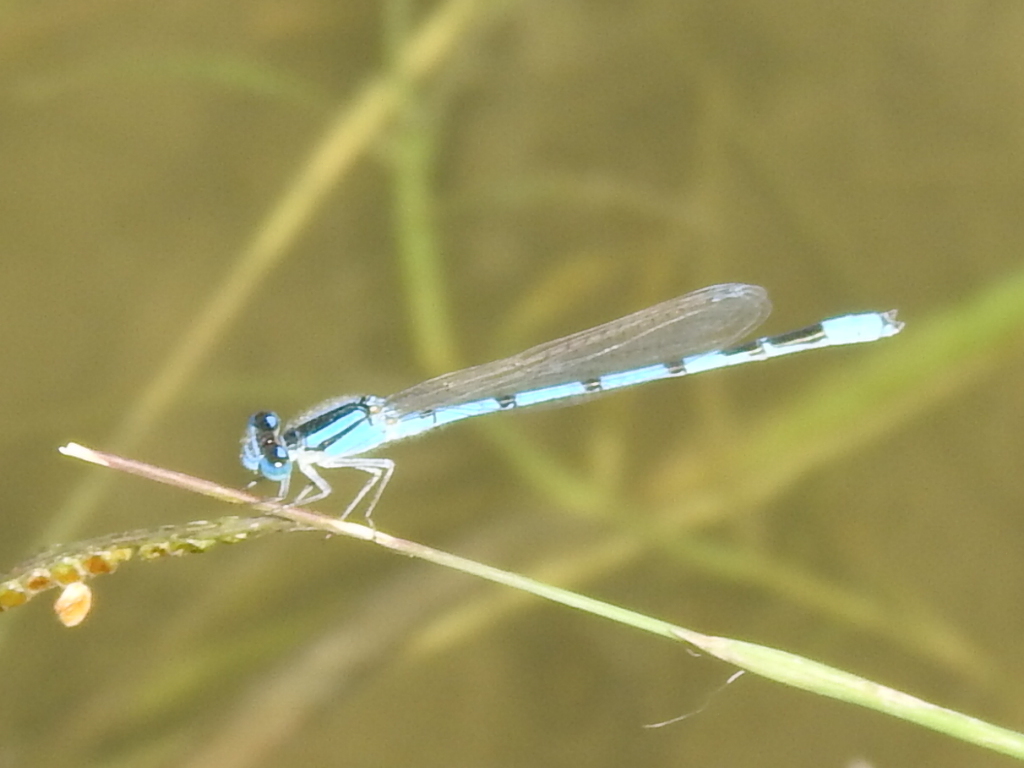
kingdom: Animalia
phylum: Arthropoda
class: Insecta
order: Odonata
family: Coenagrionidae
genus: Enallagma
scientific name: Enallagma civile
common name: Damselfly
